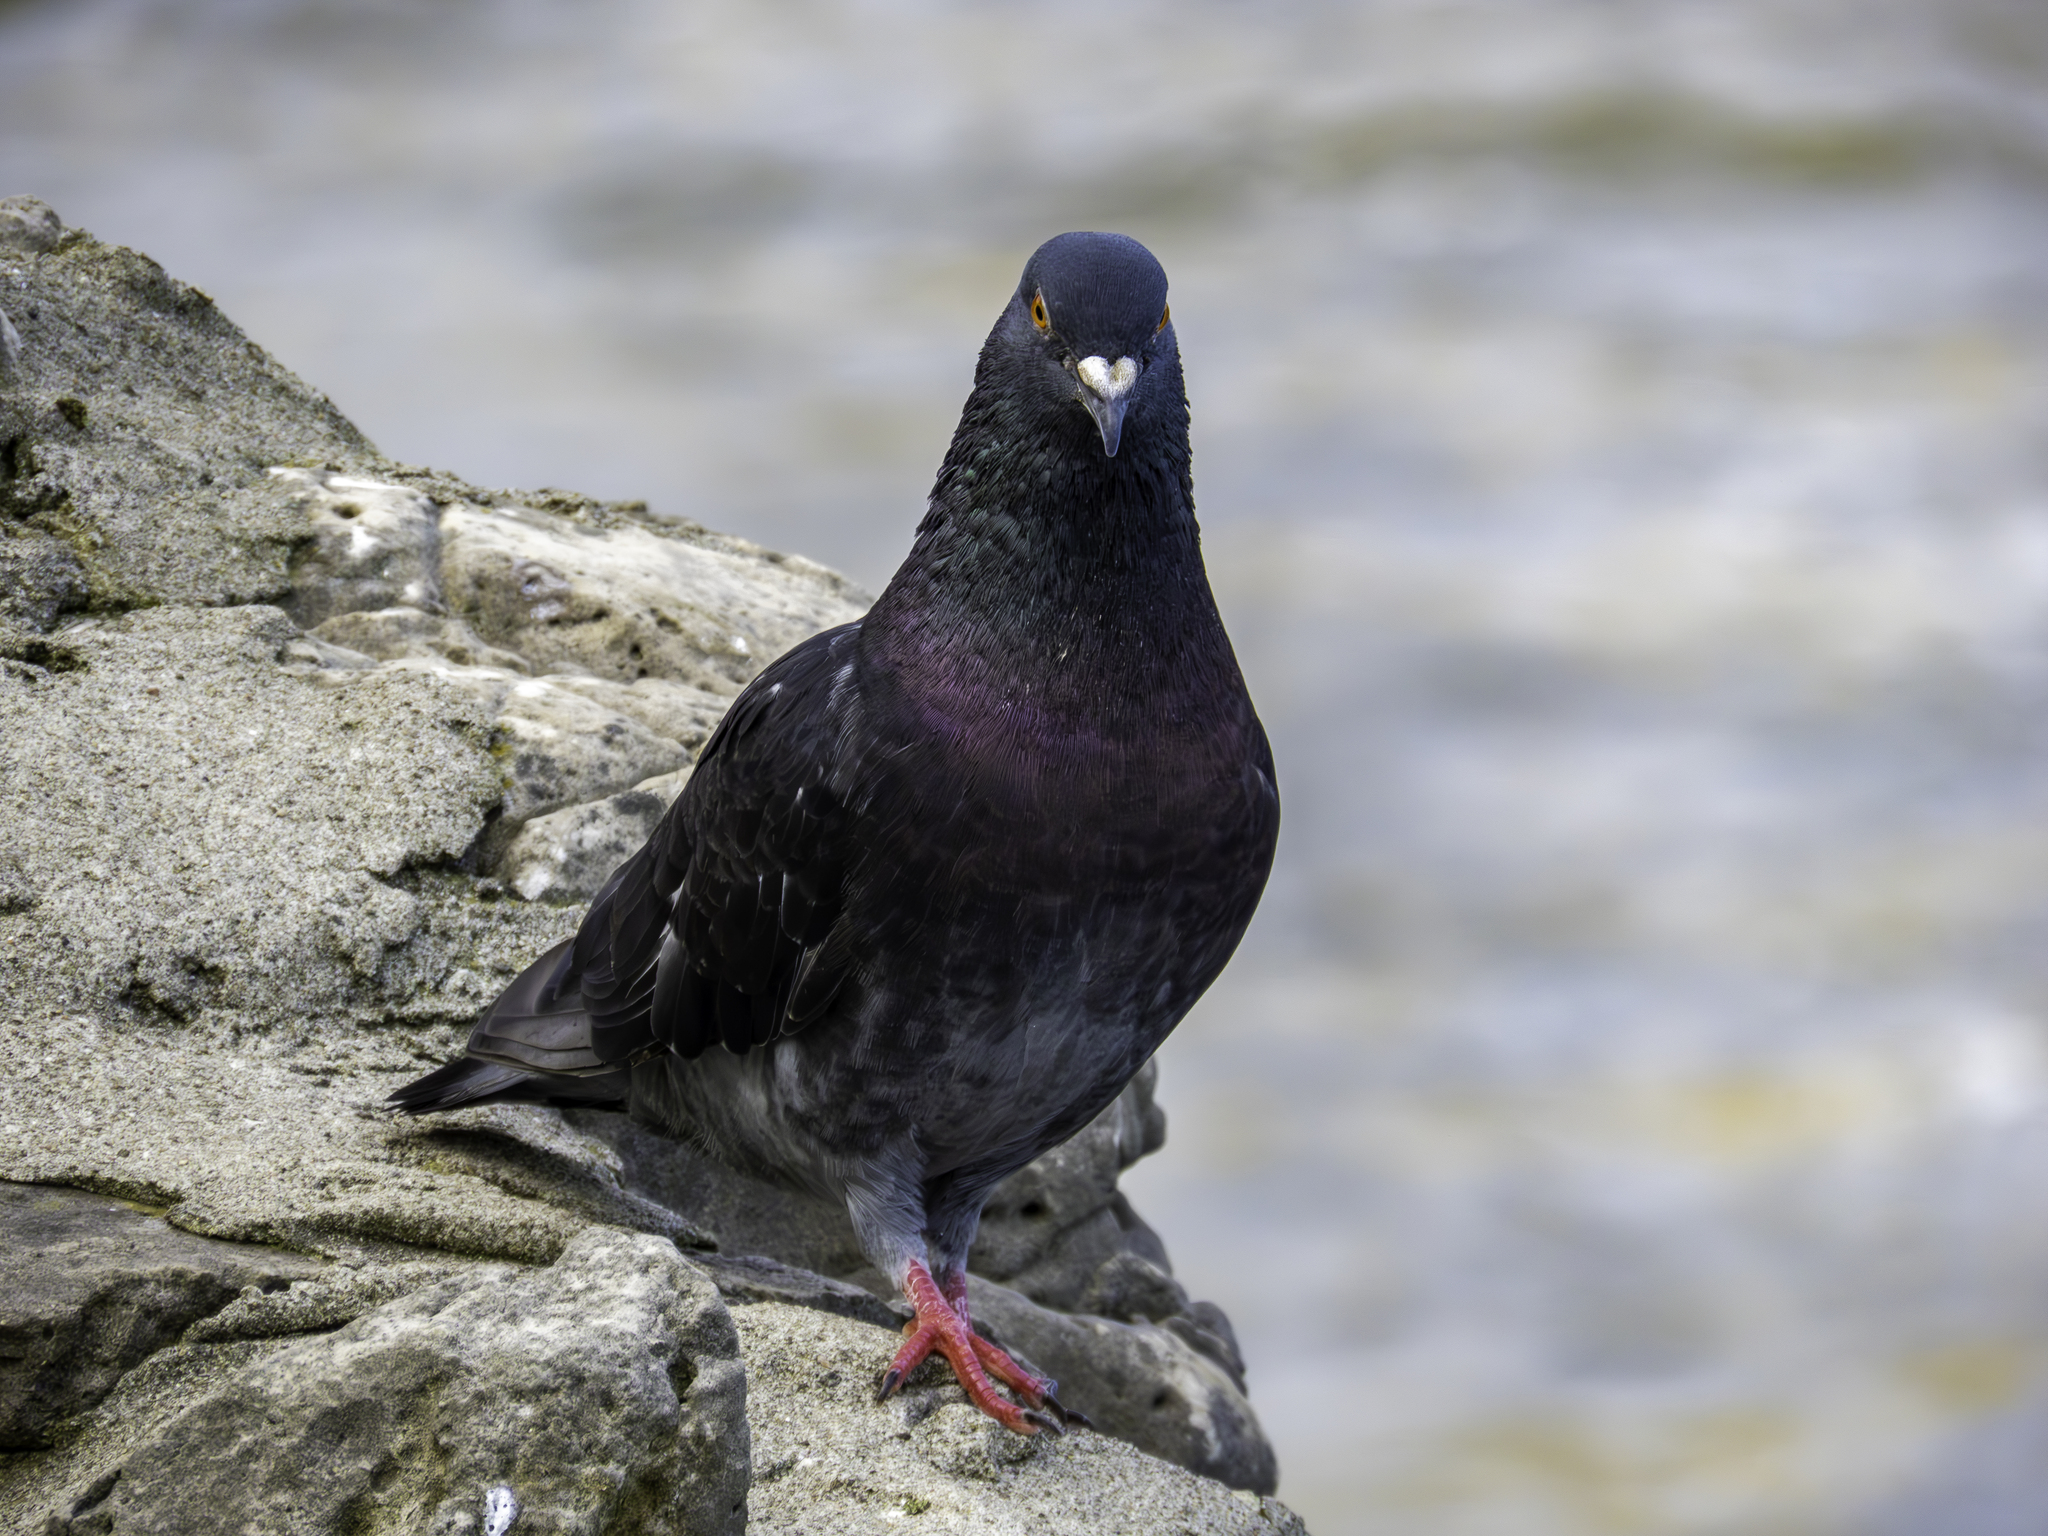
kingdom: Animalia
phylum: Chordata
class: Aves
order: Columbiformes
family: Columbidae
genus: Columba
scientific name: Columba livia
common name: Rock pigeon
